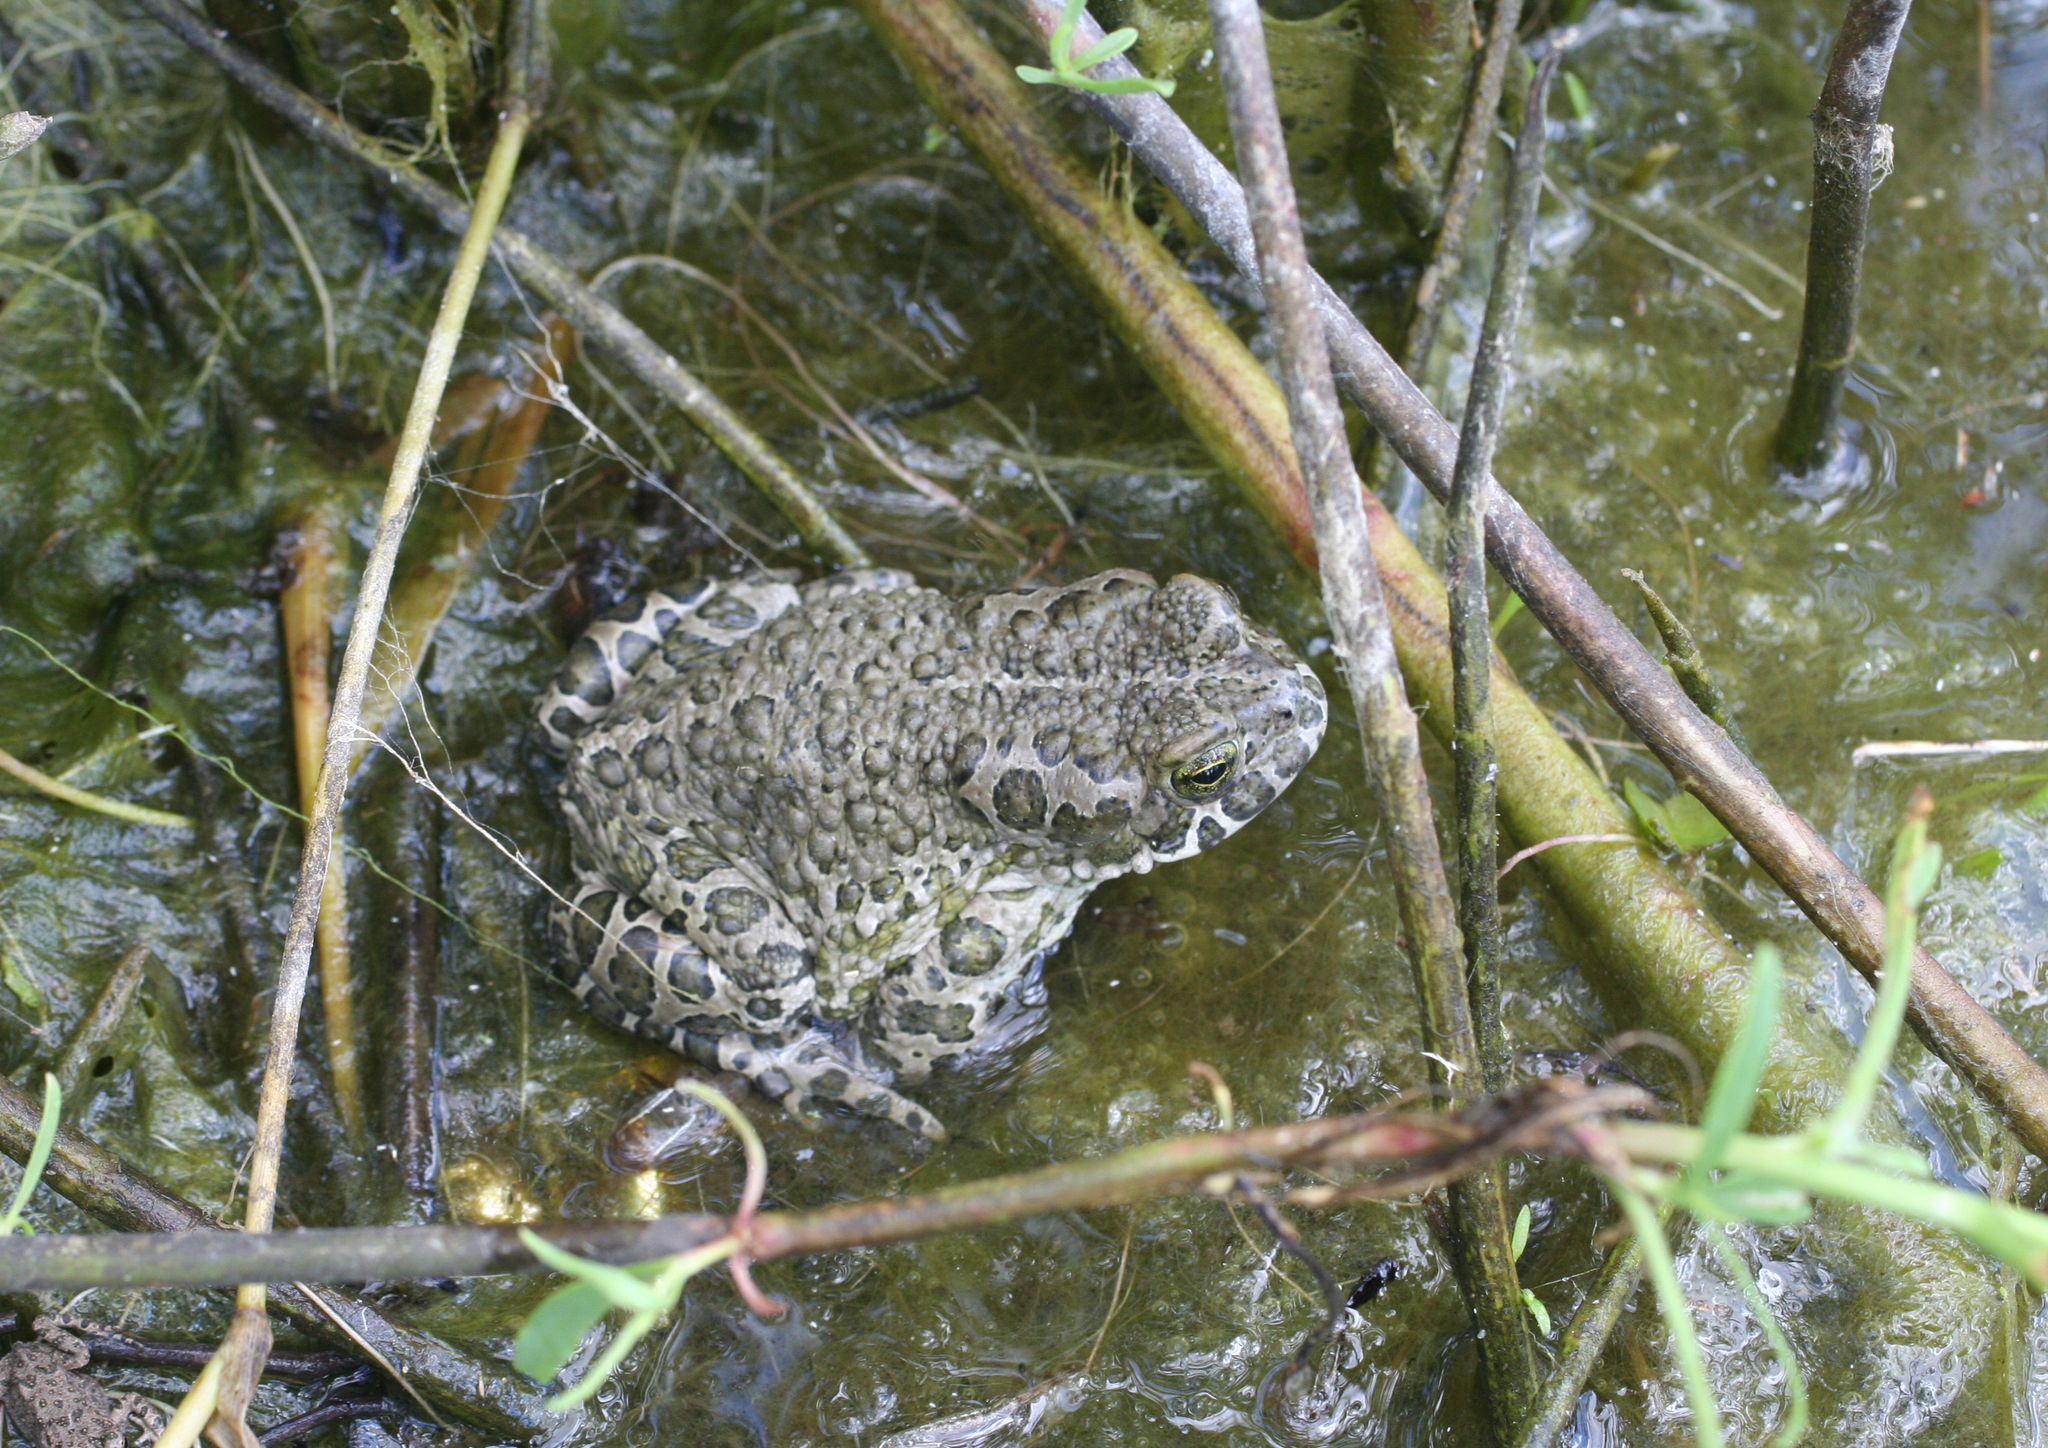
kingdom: Animalia
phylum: Chordata
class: Amphibia
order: Anura
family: Bufonidae
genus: Bufotes
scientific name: Bufotes viridis
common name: European green toad
